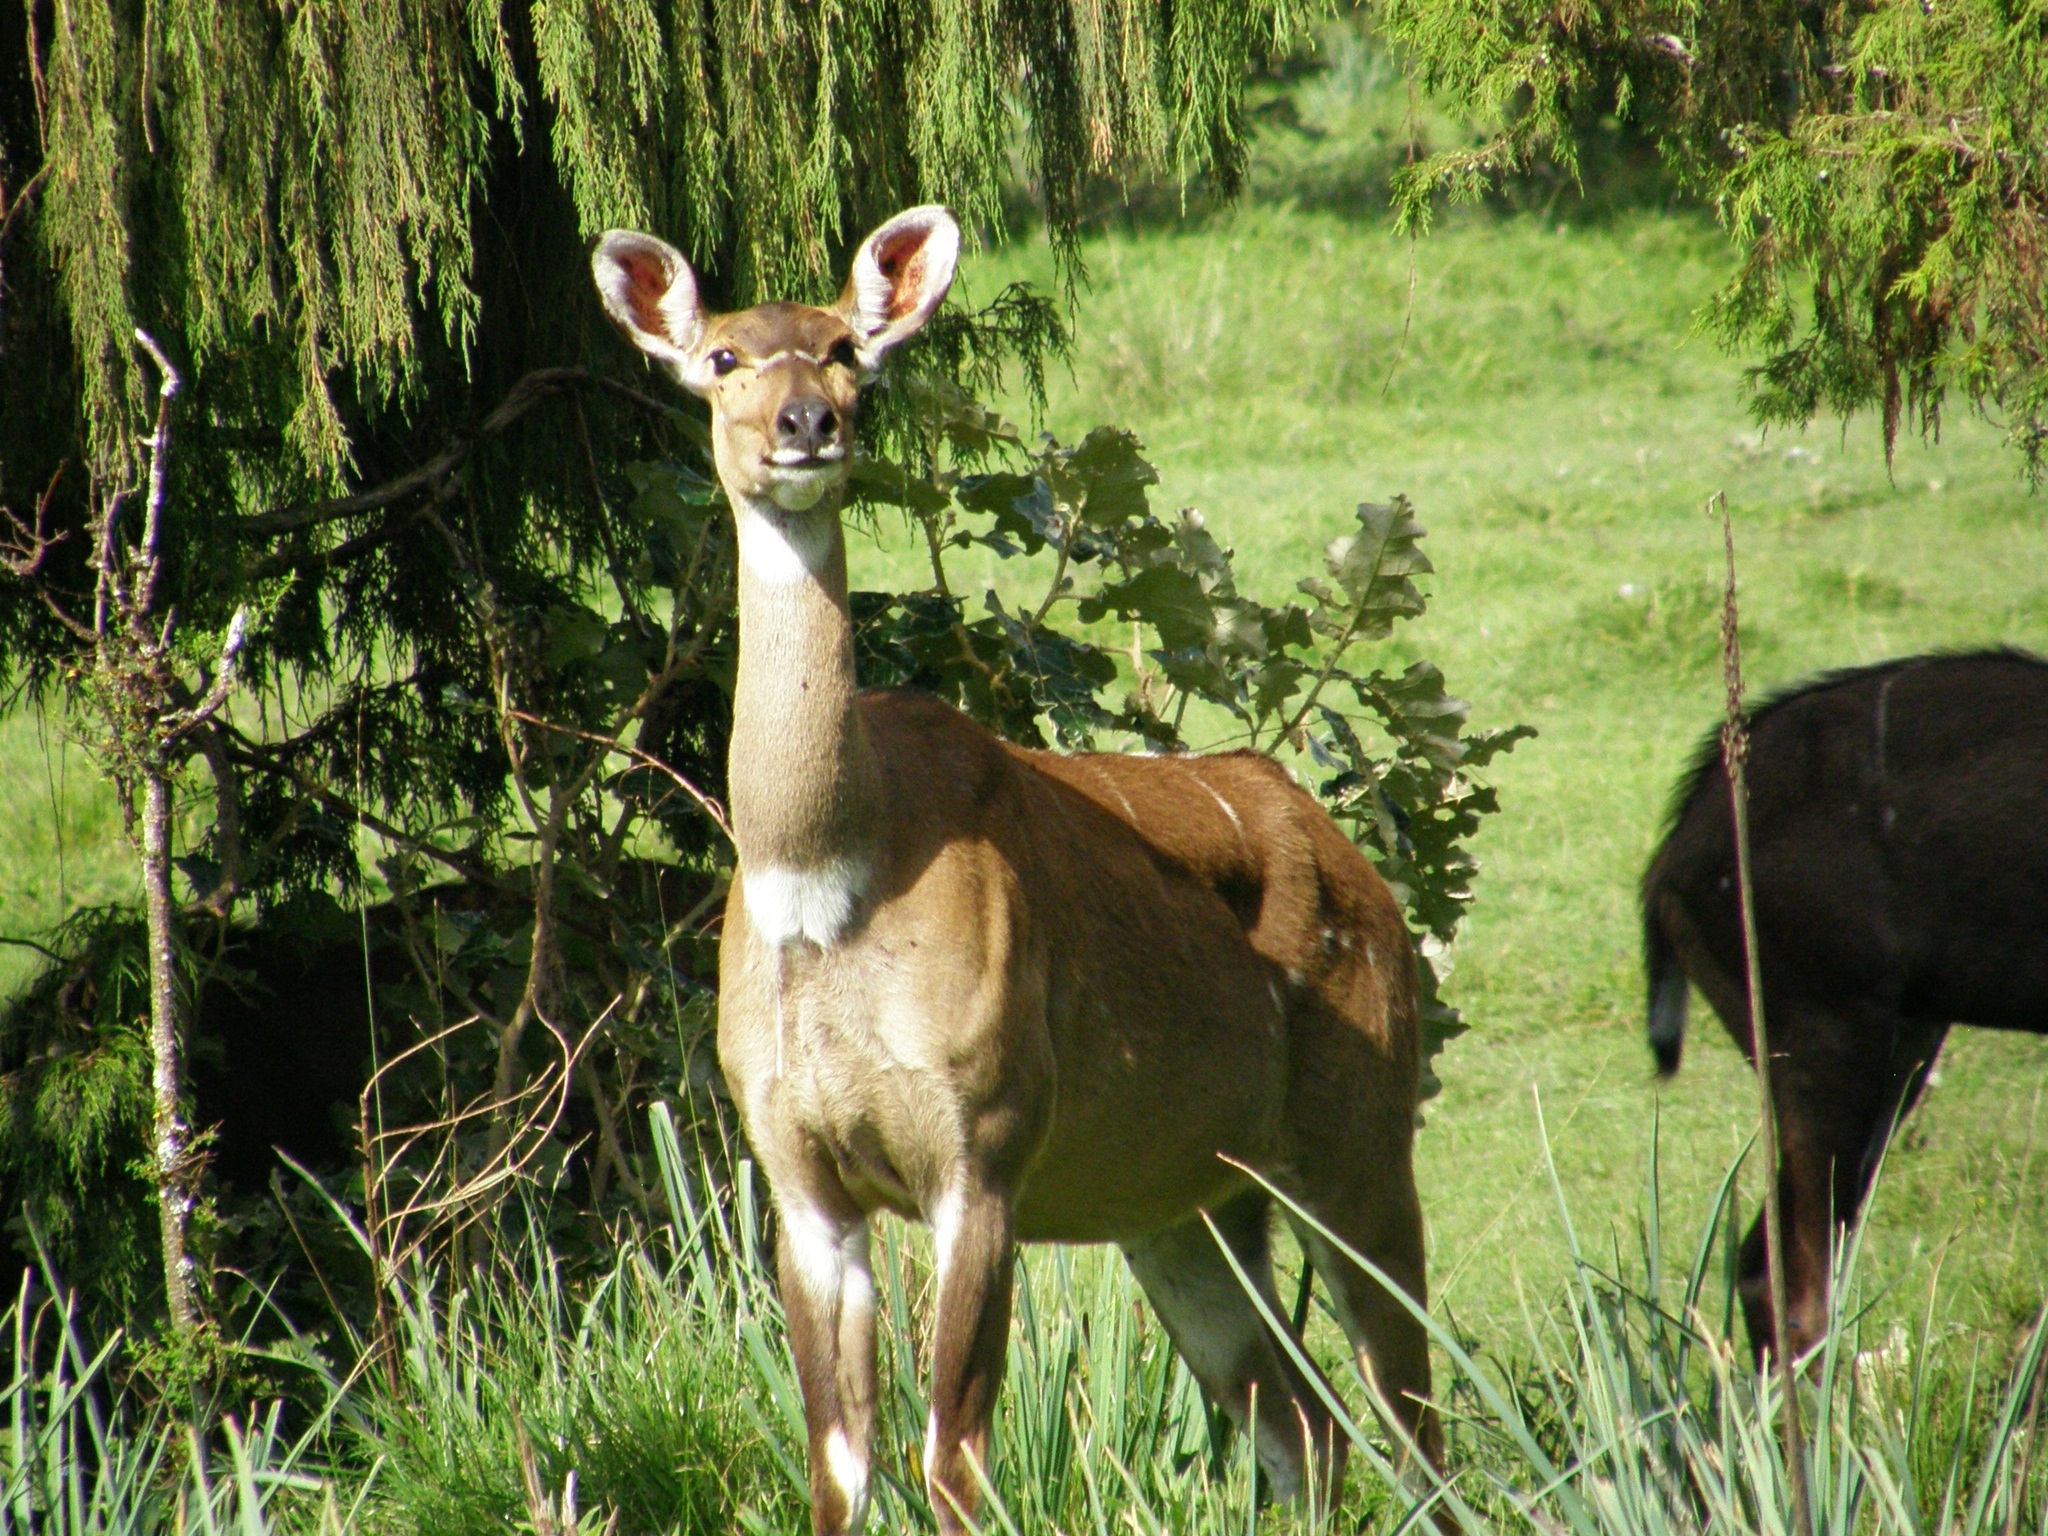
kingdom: Animalia
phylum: Chordata
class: Mammalia
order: Artiodactyla
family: Bovidae
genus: Tragelaphus
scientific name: Tragelaphus buxtoni
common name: Mountain nyala
